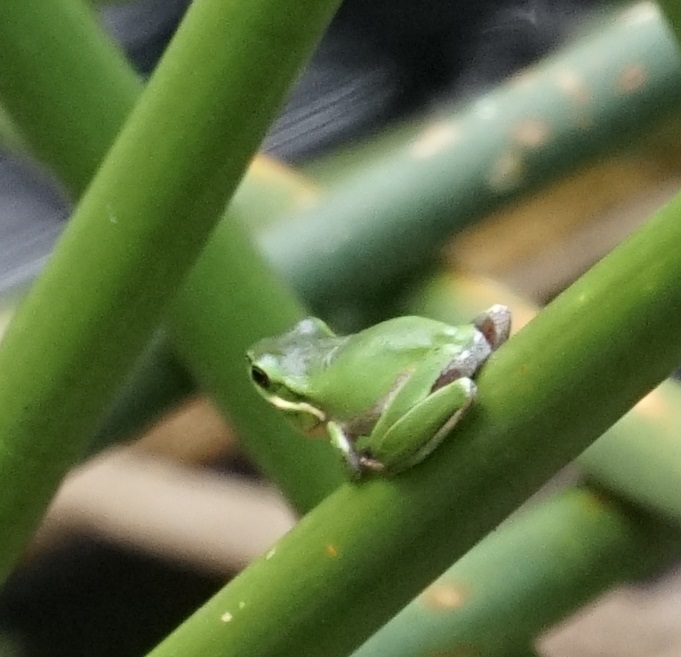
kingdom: Animalia
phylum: Chordata
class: Amphibia
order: Anura
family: Pelodryadidae
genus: Litoria
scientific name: Litoria fallax
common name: Eastern dwarf treefrog
